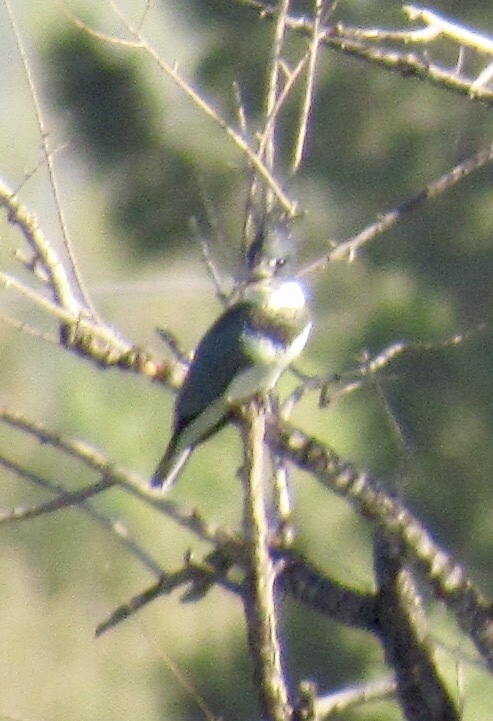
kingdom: Animalia
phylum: Chordata
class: Aves
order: Coraciiformes
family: Alcedinidae
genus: Megaceryle
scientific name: Megaceryle alcyon
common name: Belted kingfisher
